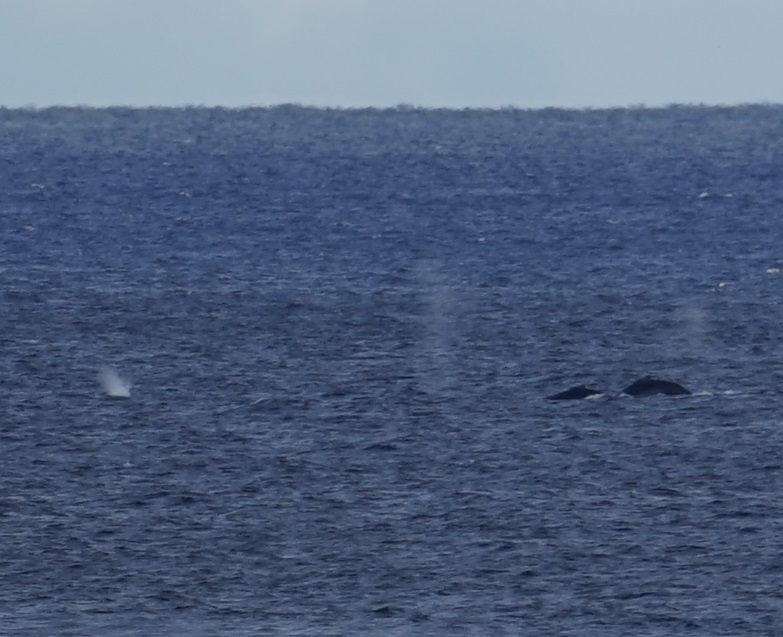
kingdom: Animalia
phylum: Chordata
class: Mammalia
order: Cetacea
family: Balaenopteridae
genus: Megaptera
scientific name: Megaptera novaeangliae
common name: Humpback whale
